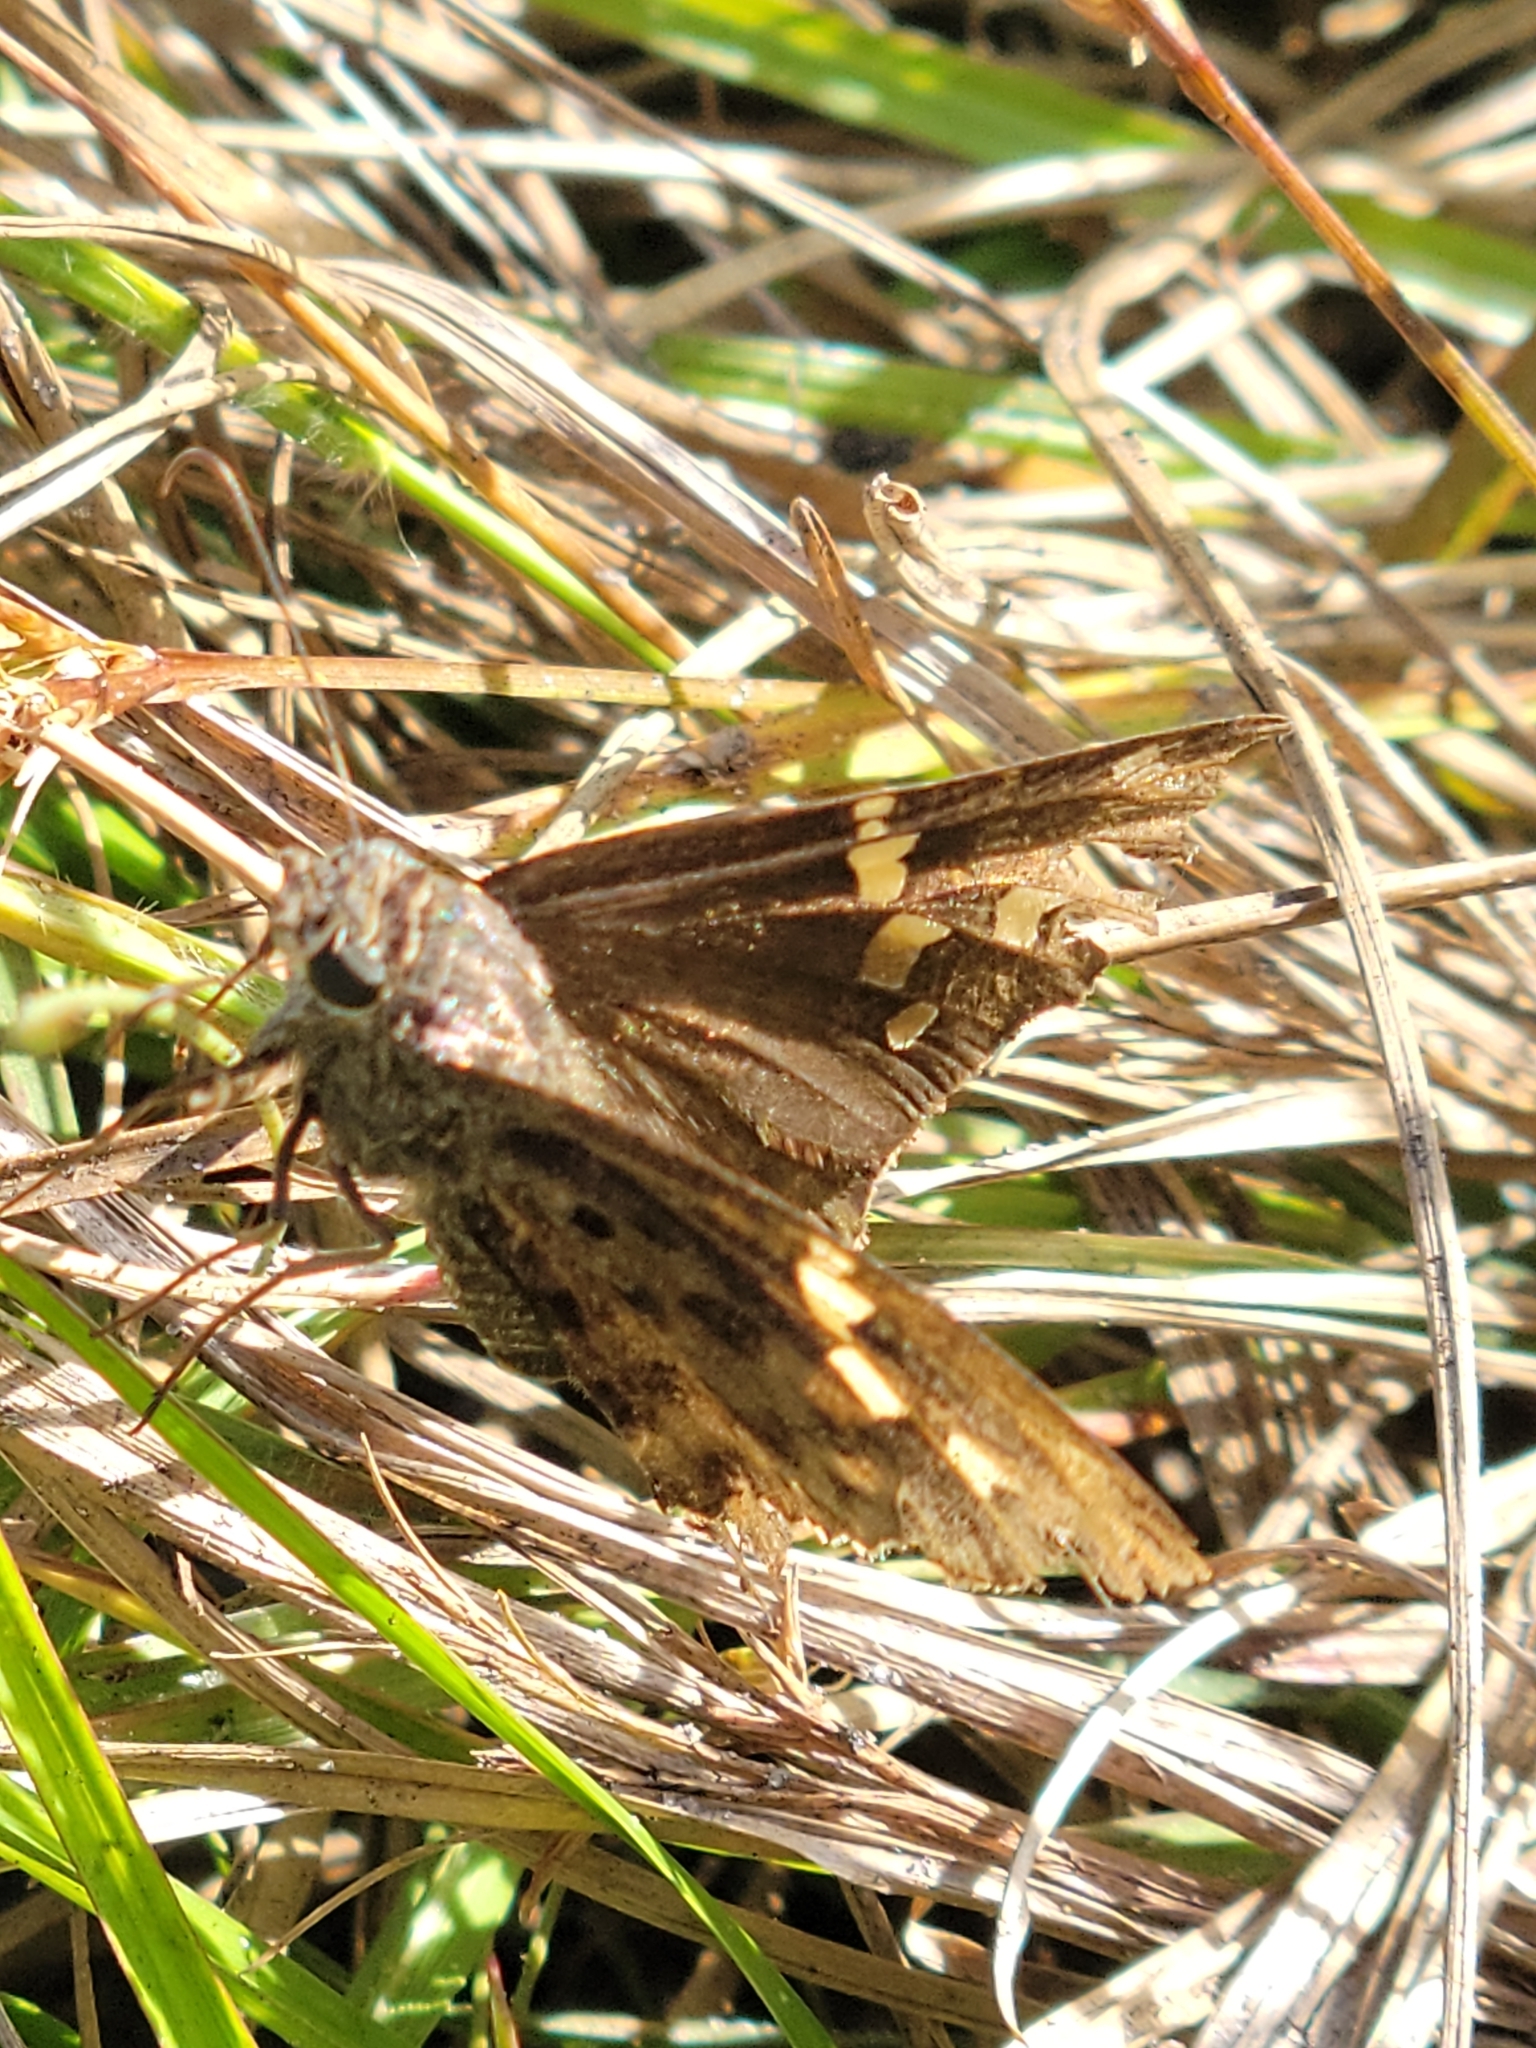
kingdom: Animalia
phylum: Arthropoda
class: Insecta
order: Lepidoptera
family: Hesperiidae
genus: Thorybes
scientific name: Thorybes
